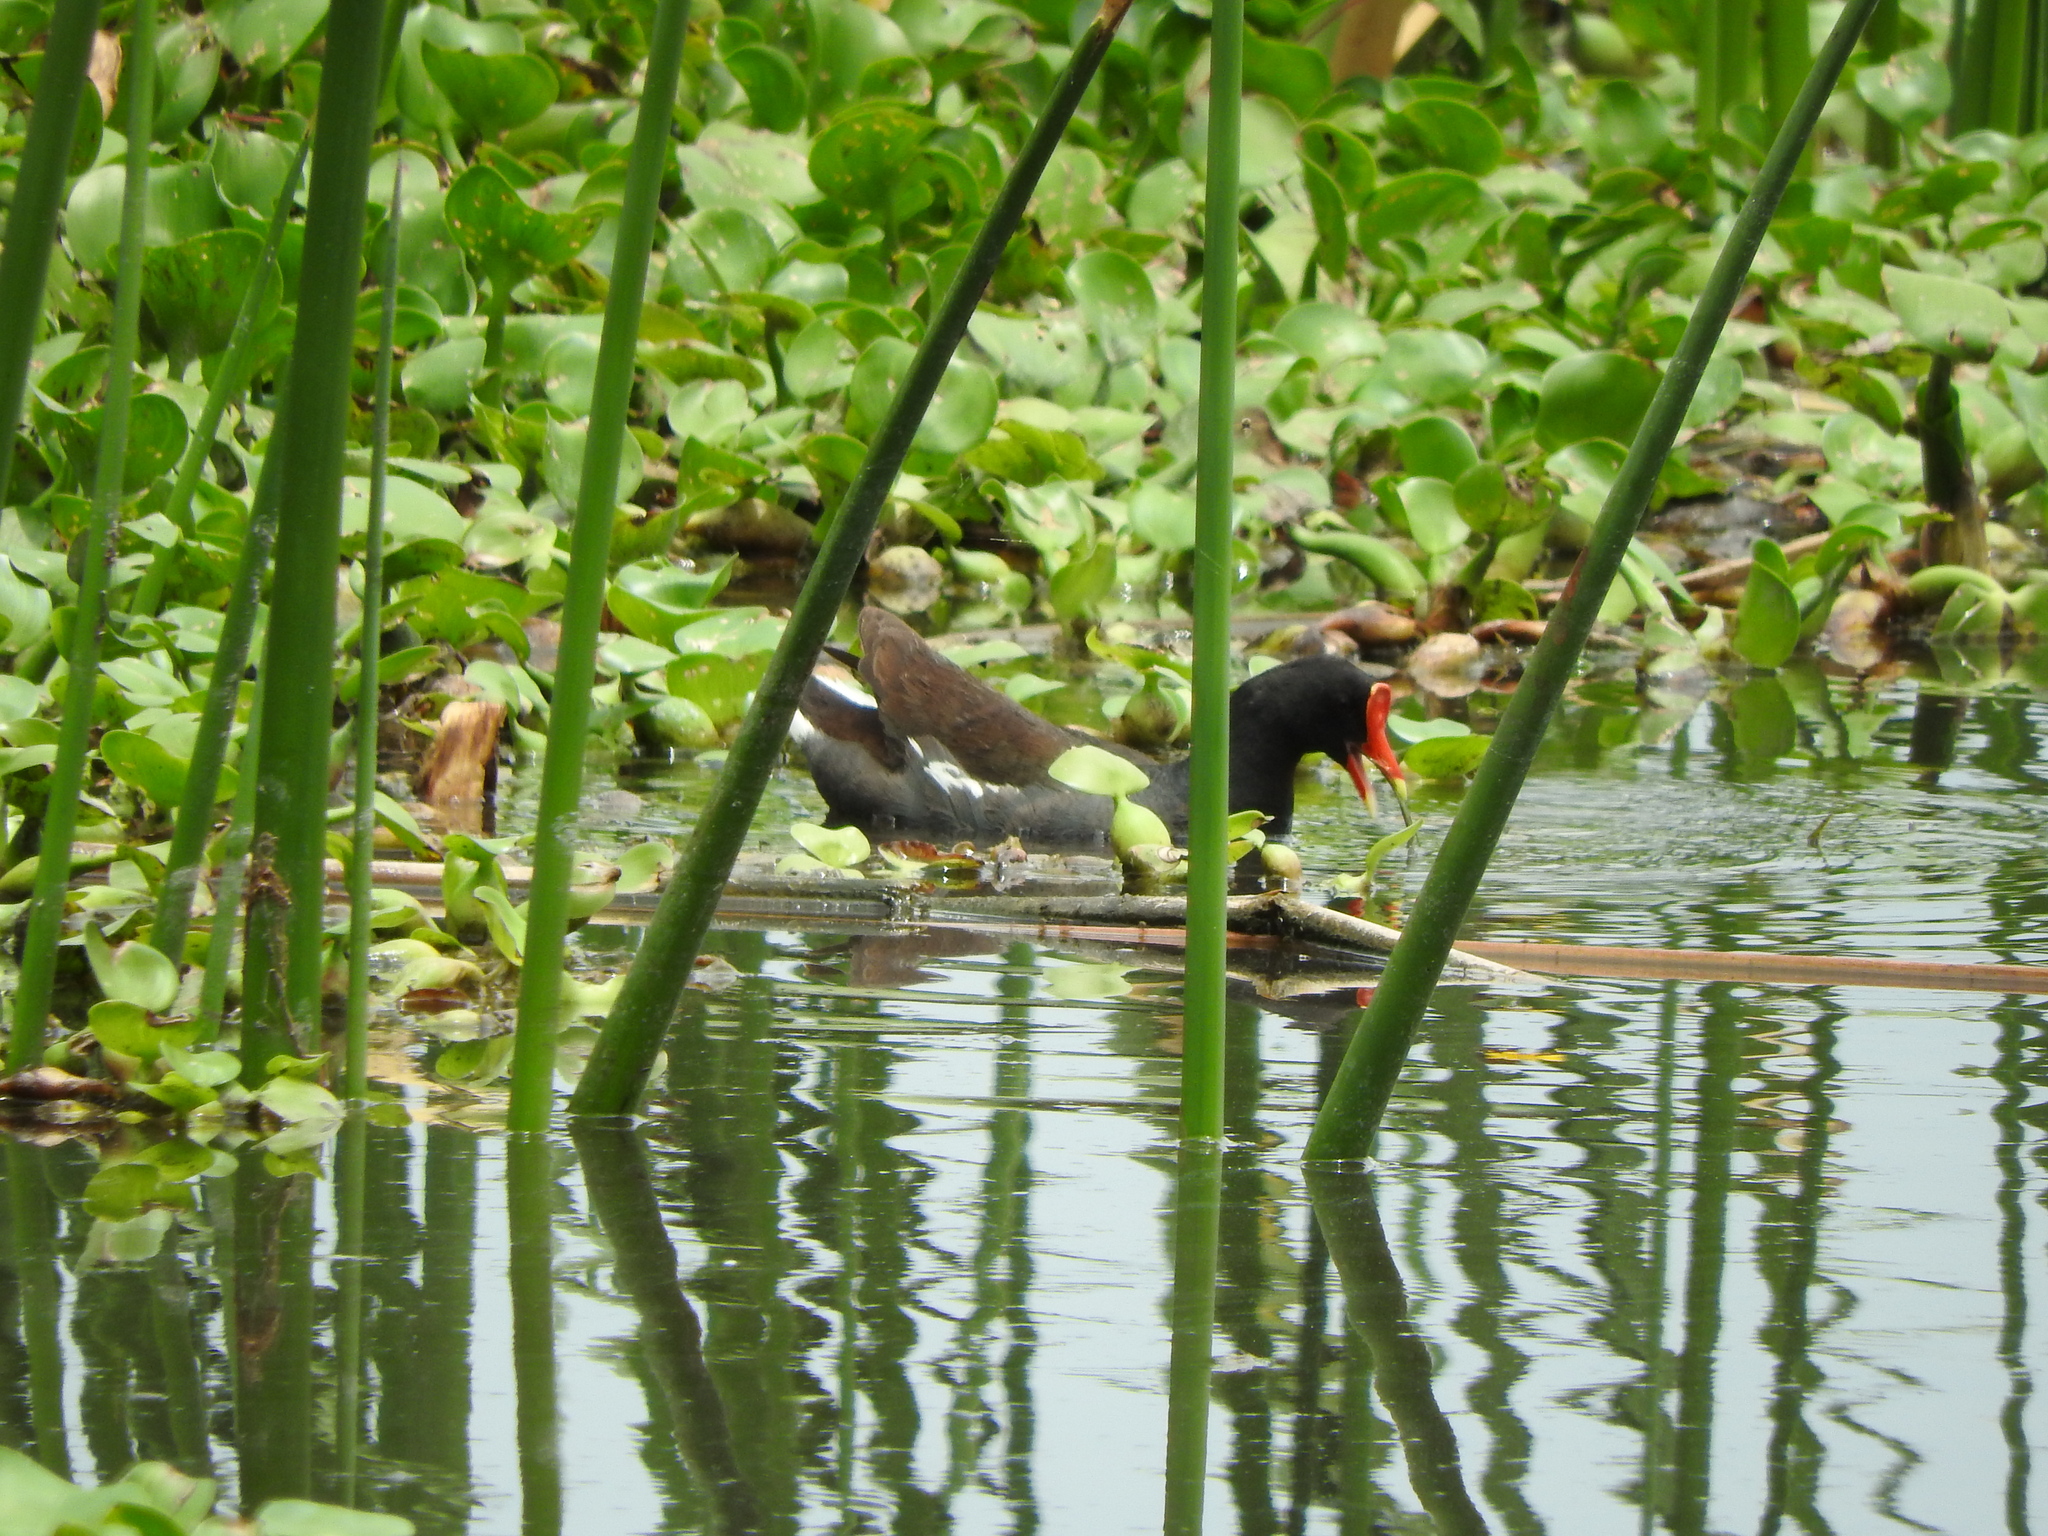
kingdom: Animalia
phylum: Chordata
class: Aves
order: Gruiformes
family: Rallidae
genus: Gallinula
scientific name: Gallinula chloropus
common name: Common moorhen
